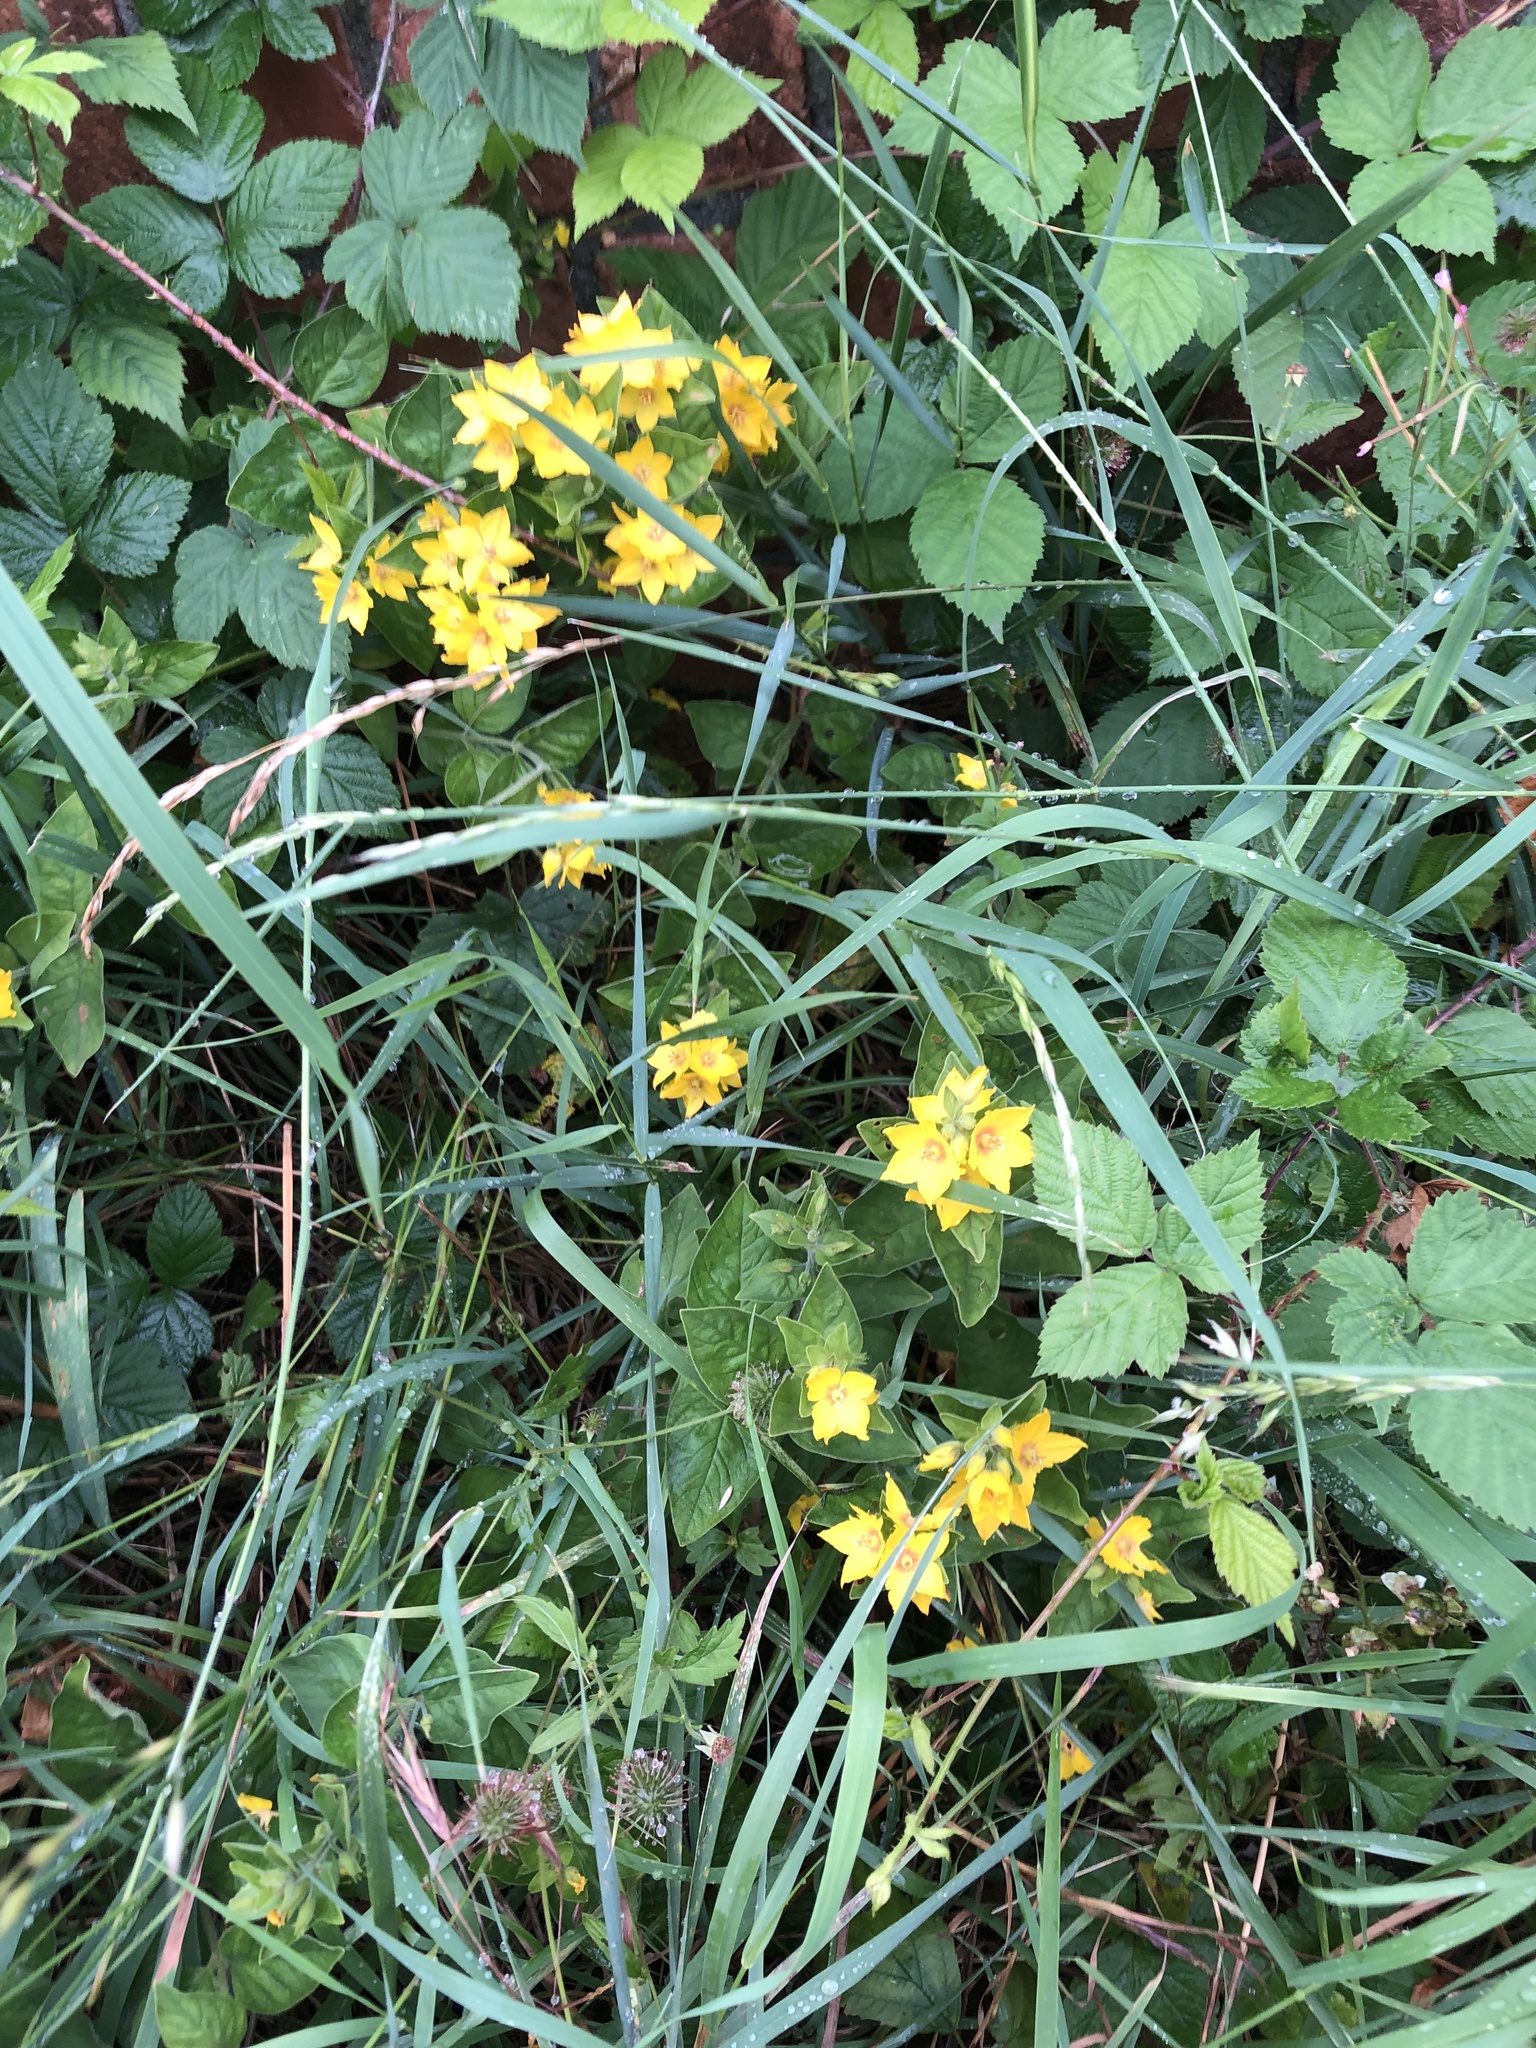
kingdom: Plantae
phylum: Tracheophyta
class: Magnoliopsida
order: Ericales
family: Primulaceae
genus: Lysimachia
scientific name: Lysimachia punctata
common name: Dotted loosestrife
